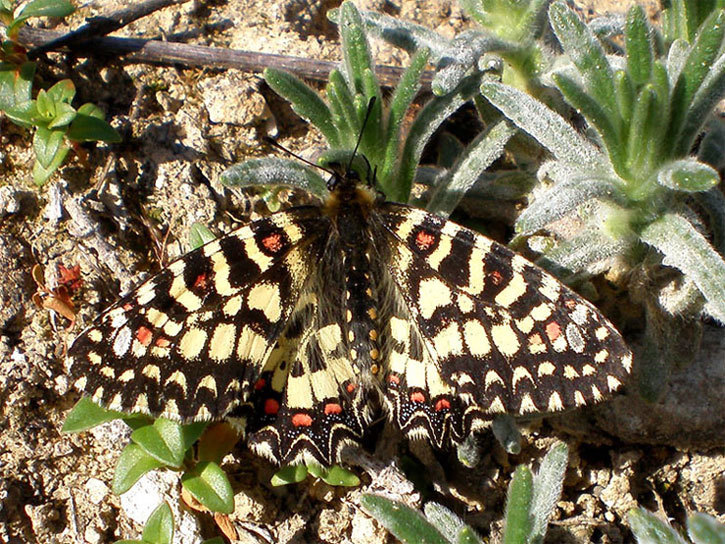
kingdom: Animalia
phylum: Arthropoda
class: Insecta
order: Lepidoptera
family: Papilionidae
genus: Zerynthia
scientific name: Zerynthia rumina
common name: Spanish festoon
